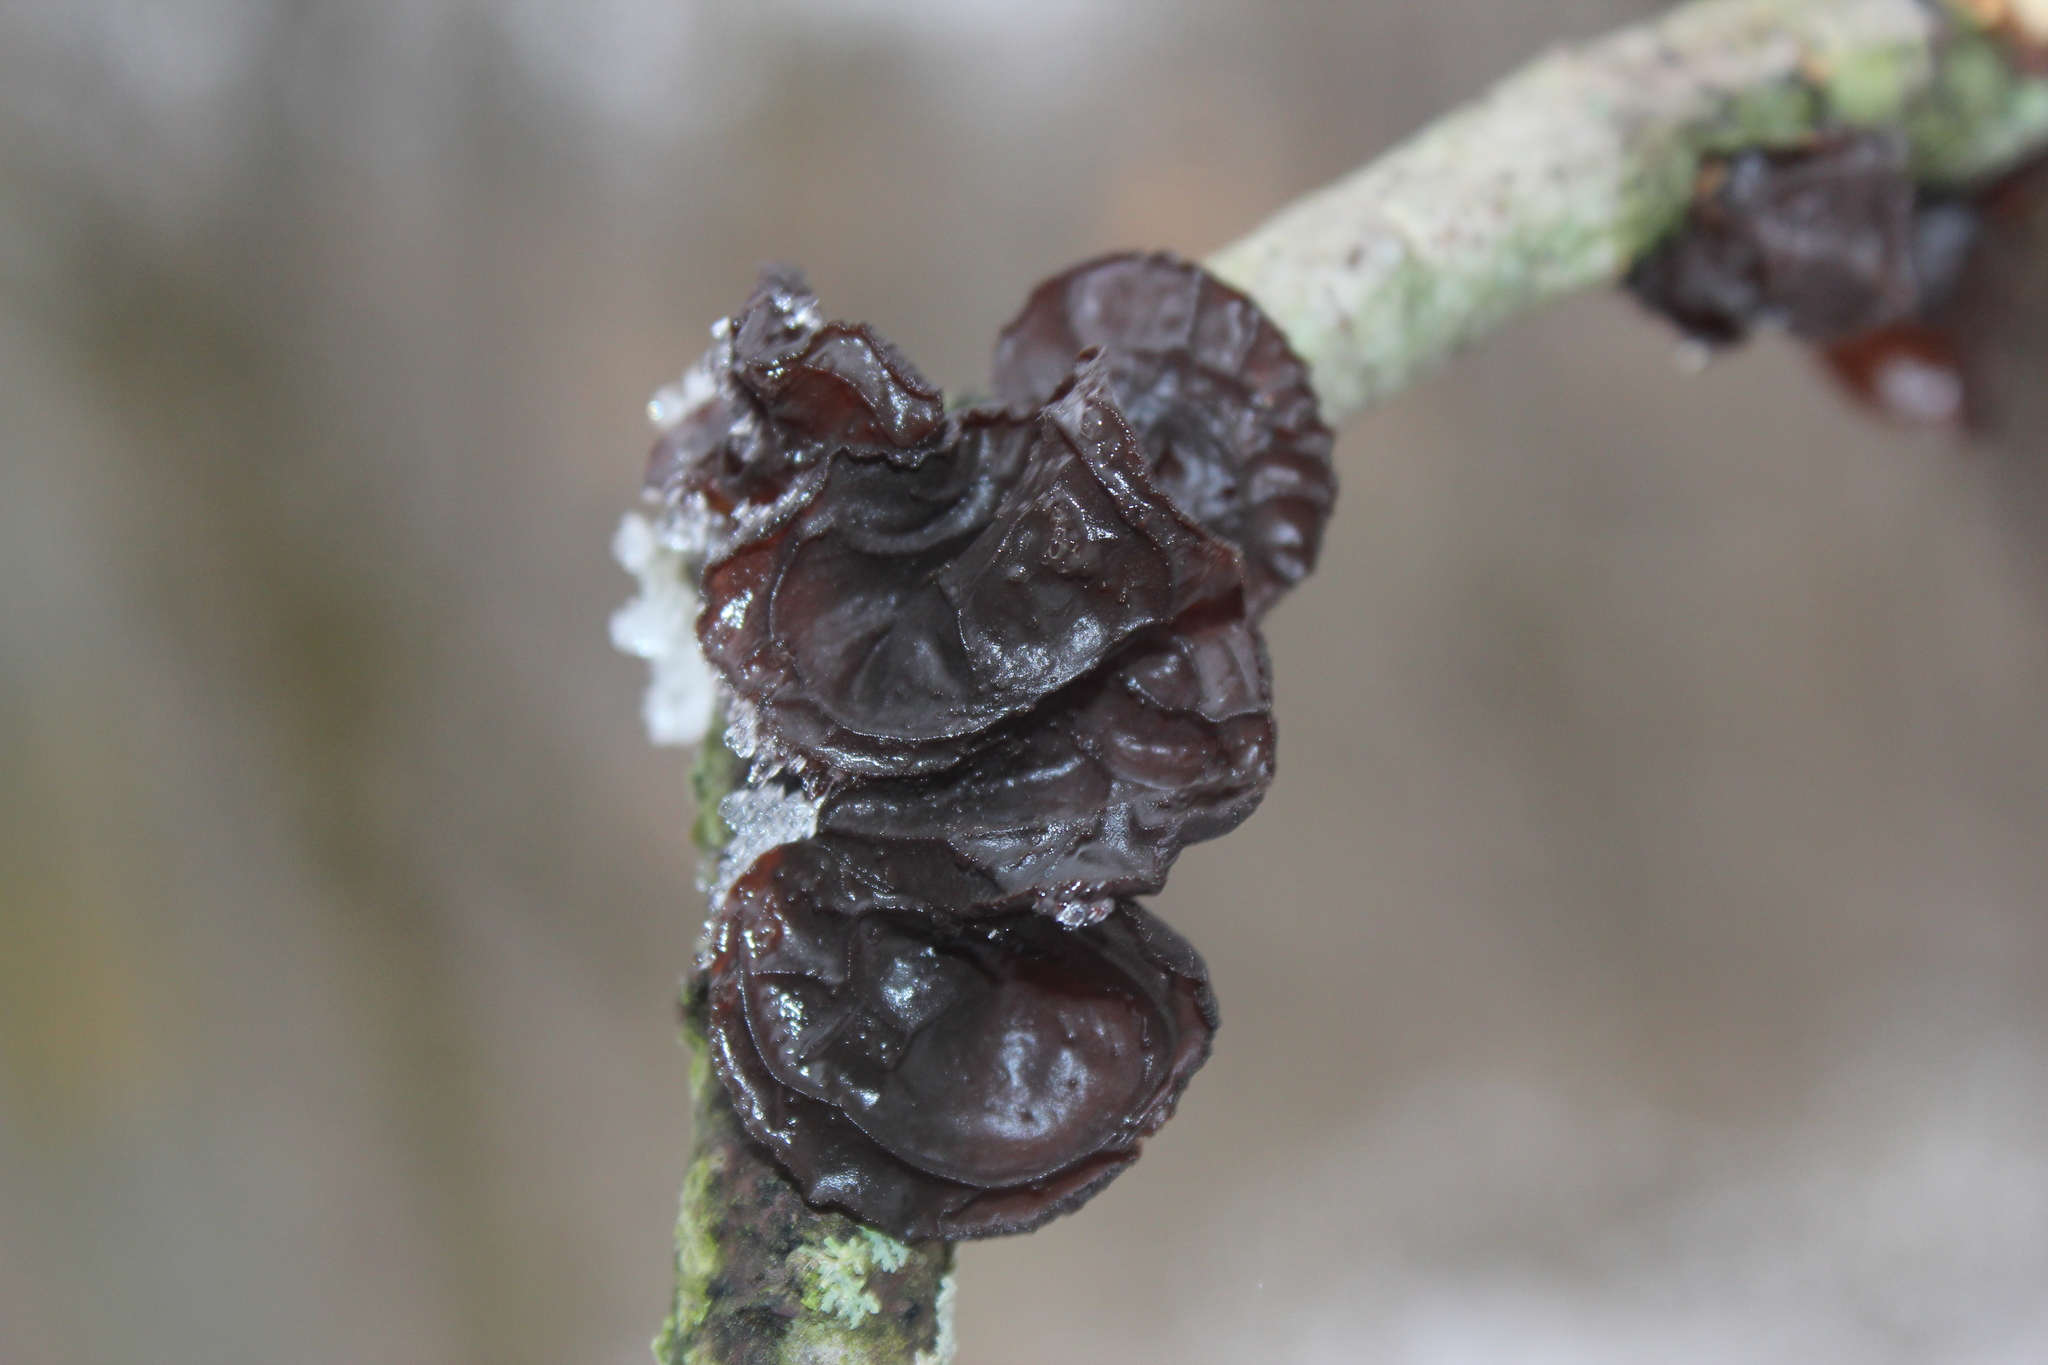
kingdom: Fungi
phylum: Basidiomycota
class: Agaricomycetes
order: Auriculariales
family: Auriculariaceae
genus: Exidia
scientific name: Exidia
